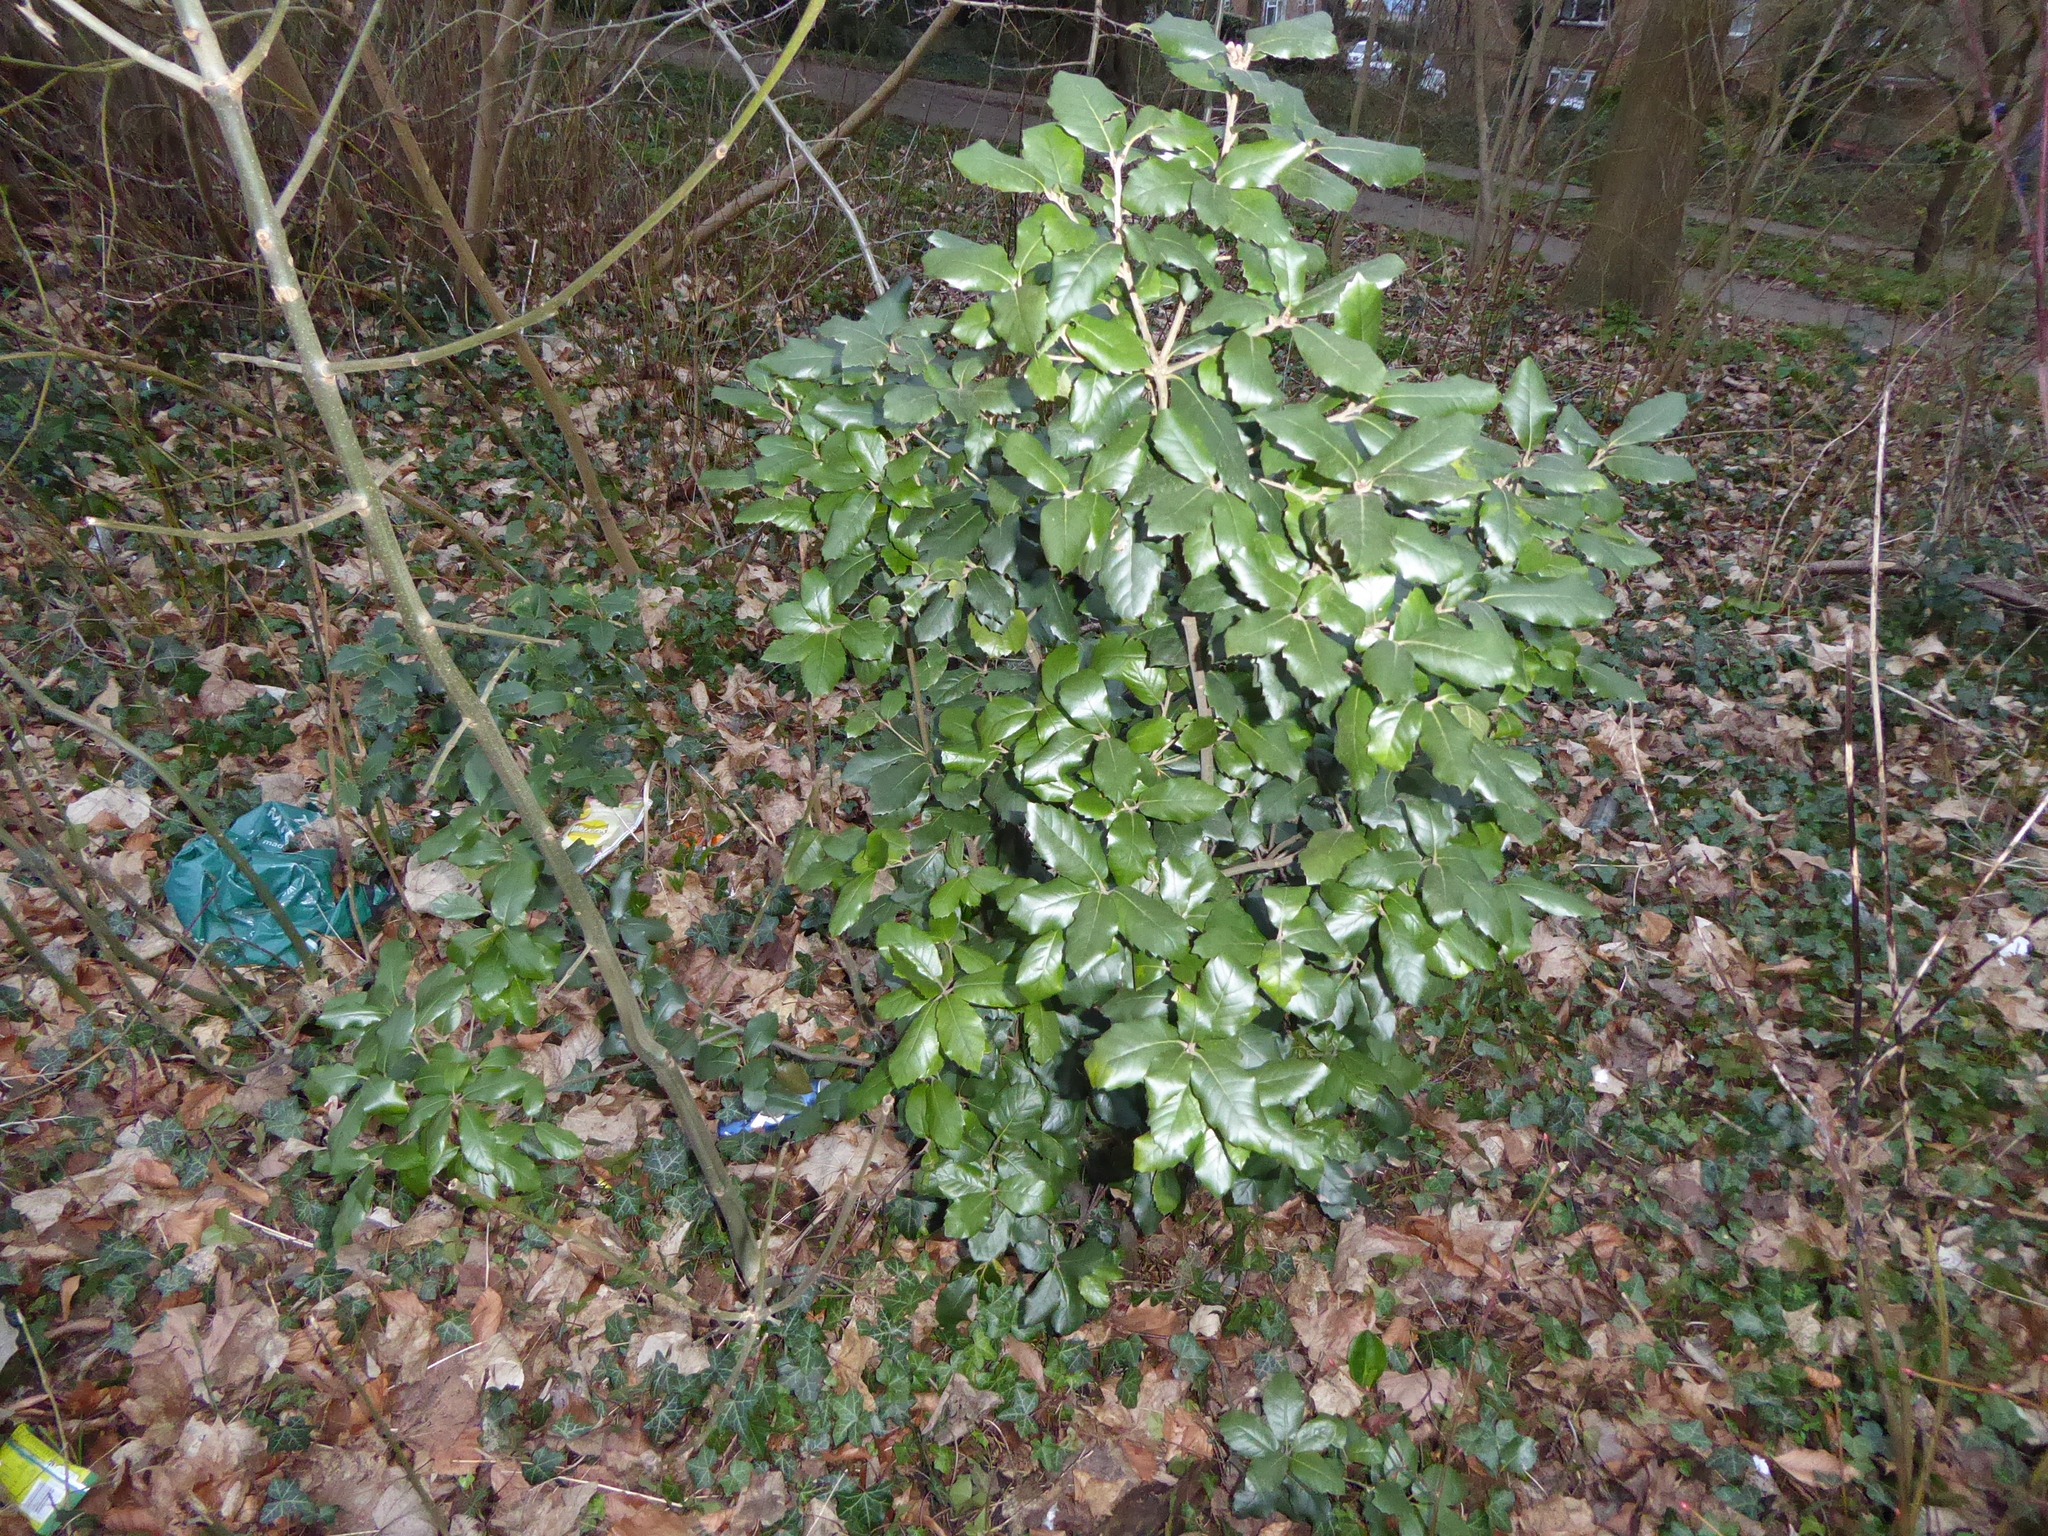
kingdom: Plantae
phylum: Tracheophyta
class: Magnoliopsida
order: Fagales
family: Fagaceae
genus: Quercus
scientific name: Quercus ilex
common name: Evergreen oak
